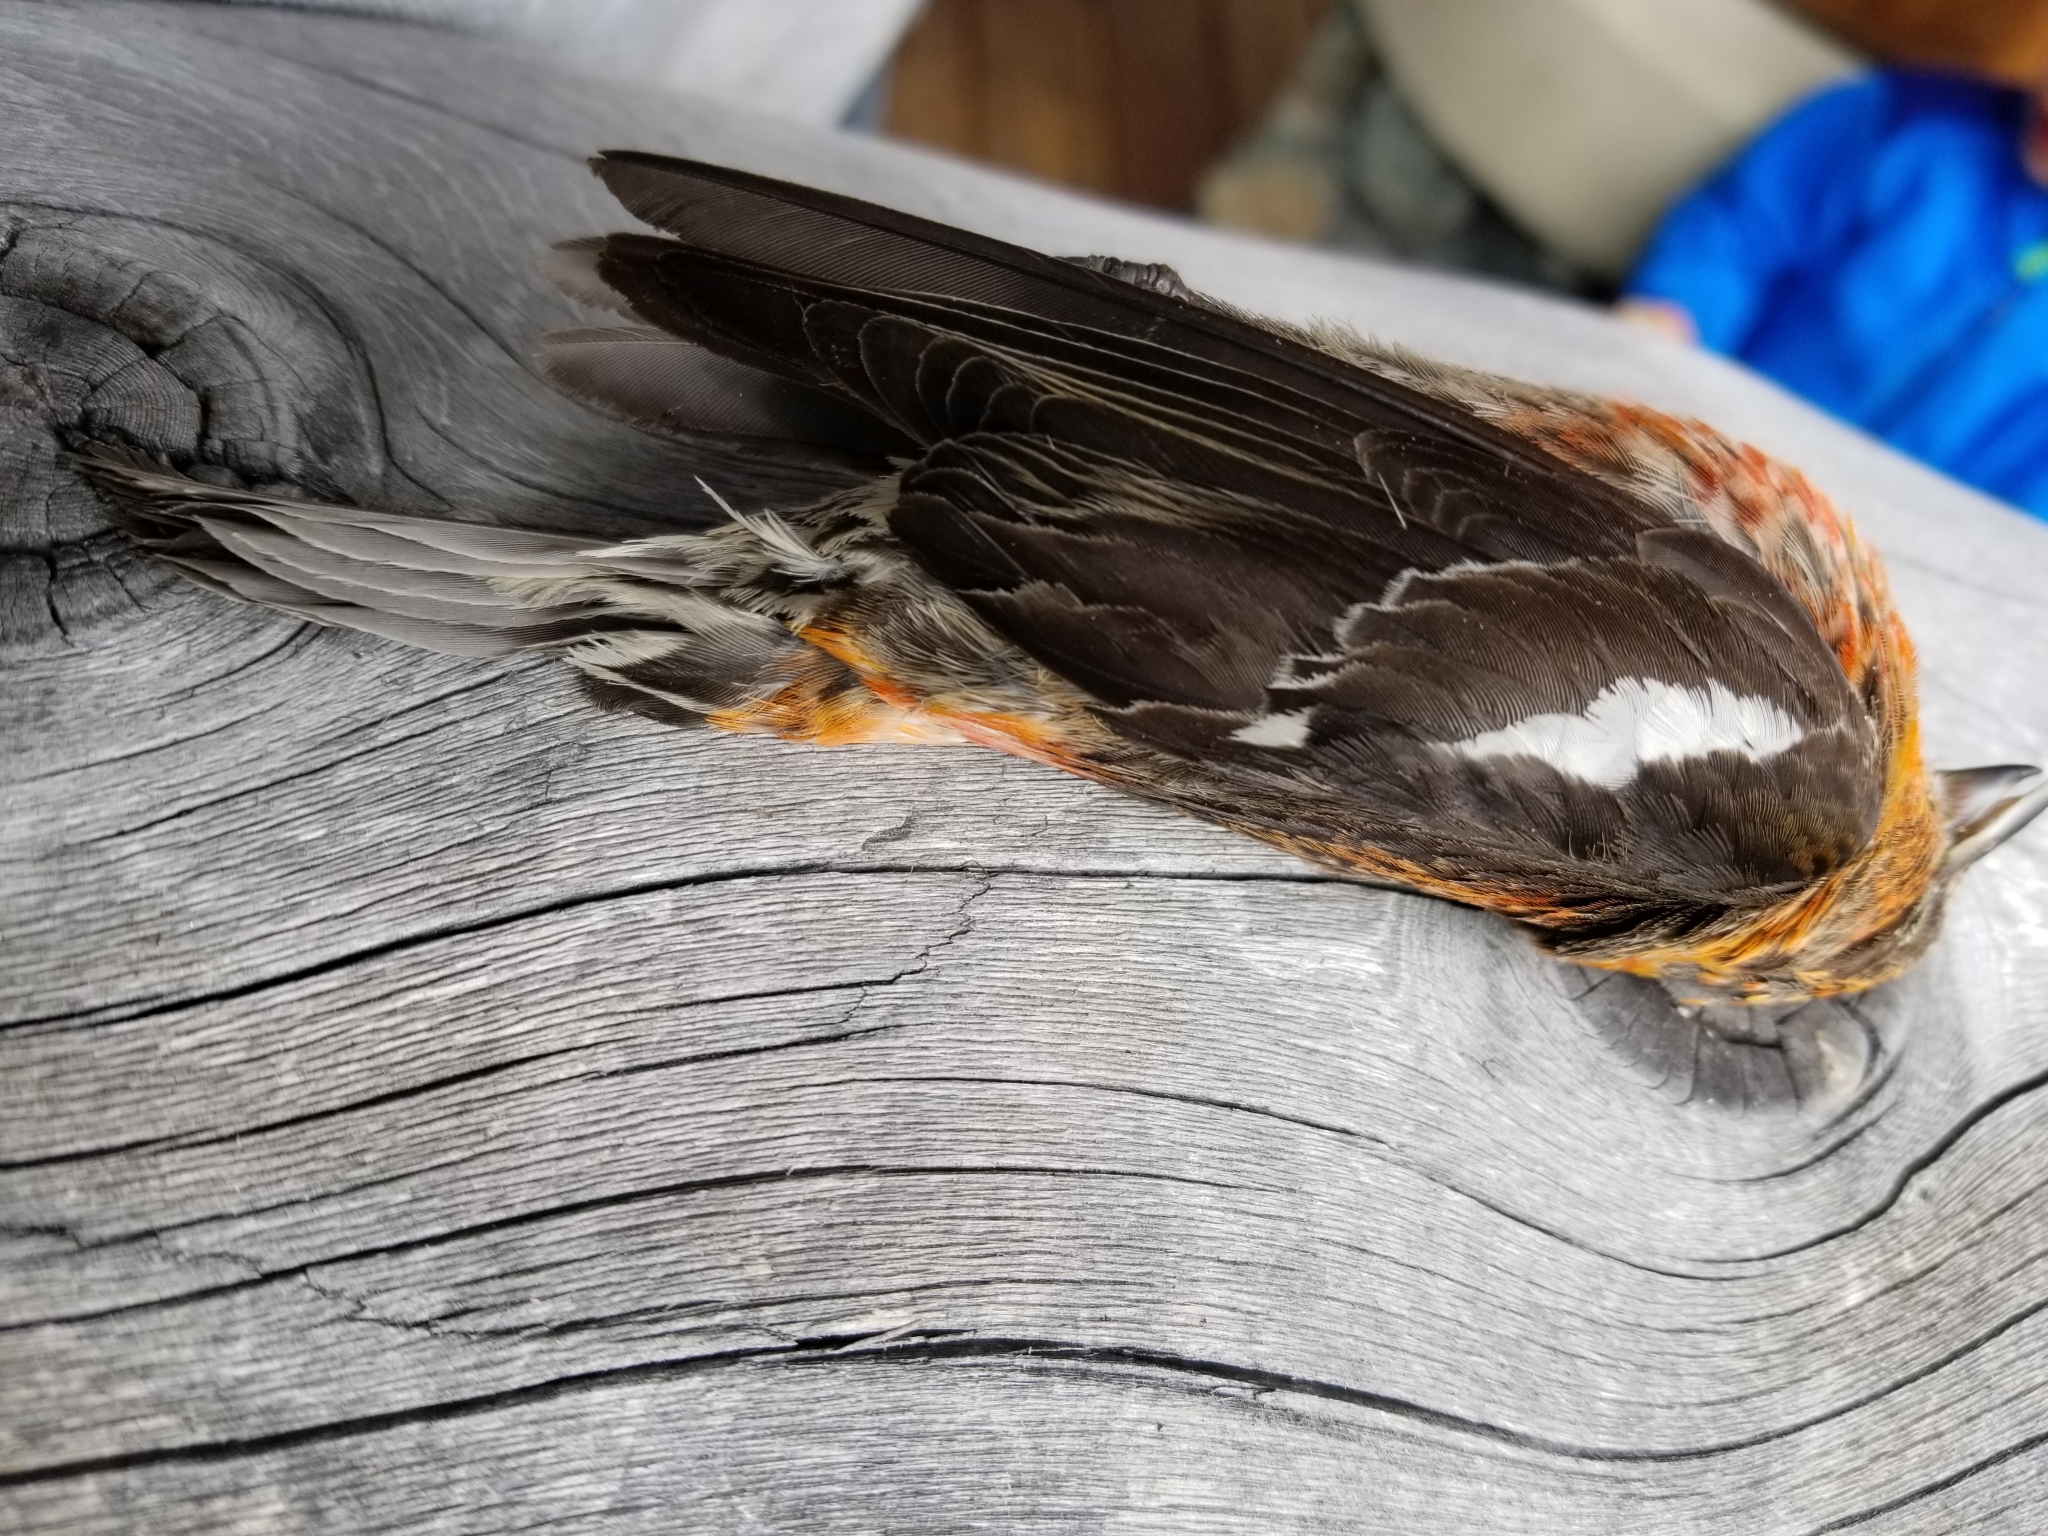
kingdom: Animalia
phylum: Chordata
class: Aves
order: Passeriformes
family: Fringillidae
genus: Loxia
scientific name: Loxia leucoptera
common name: Two-barred crossbill
